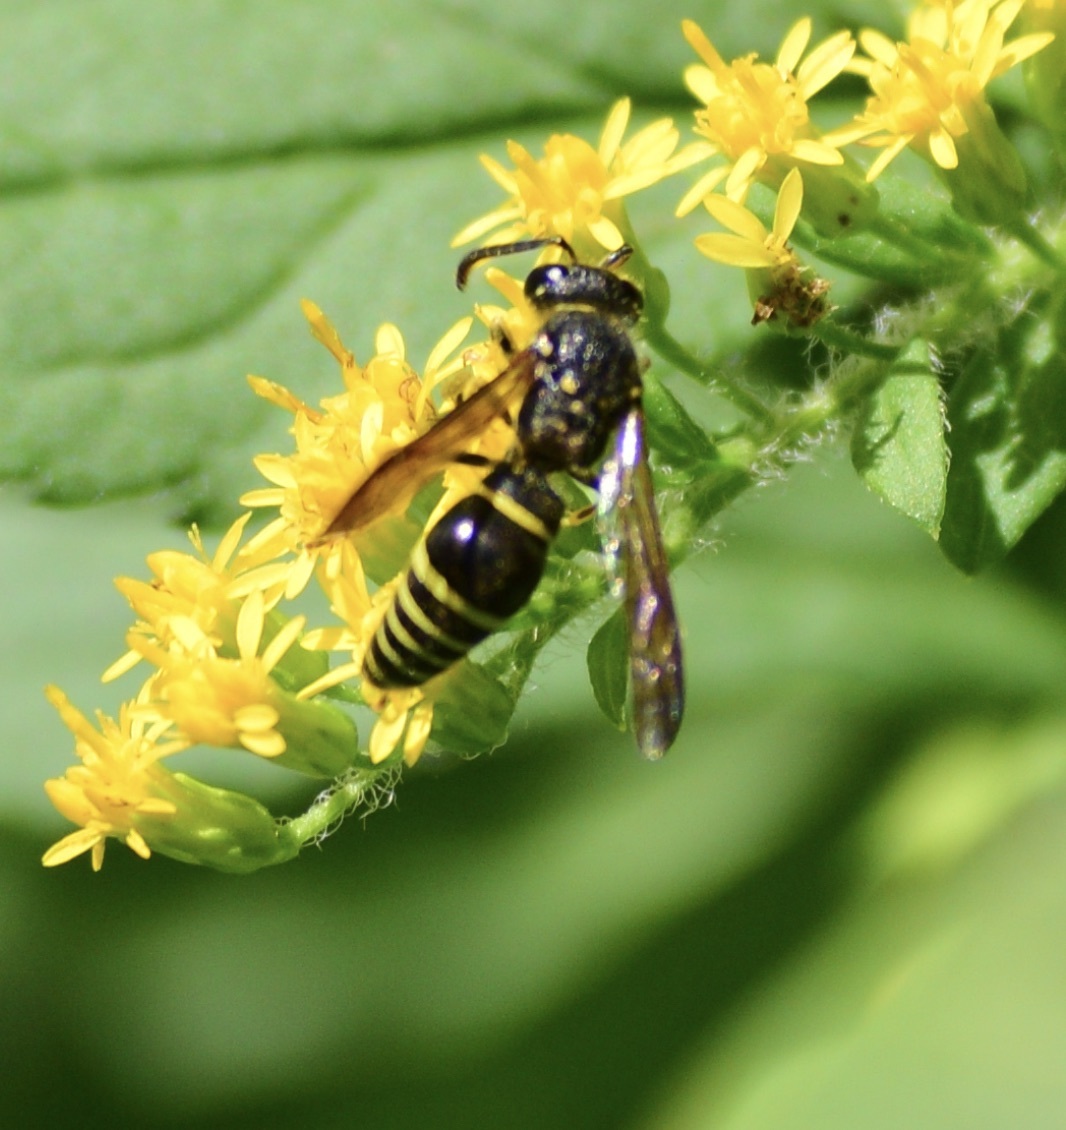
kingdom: Animalia
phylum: Arthropoda
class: Insecta
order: Hymenoptera
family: Vespidae
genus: Ancistrocerus
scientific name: Ancistrocerus
